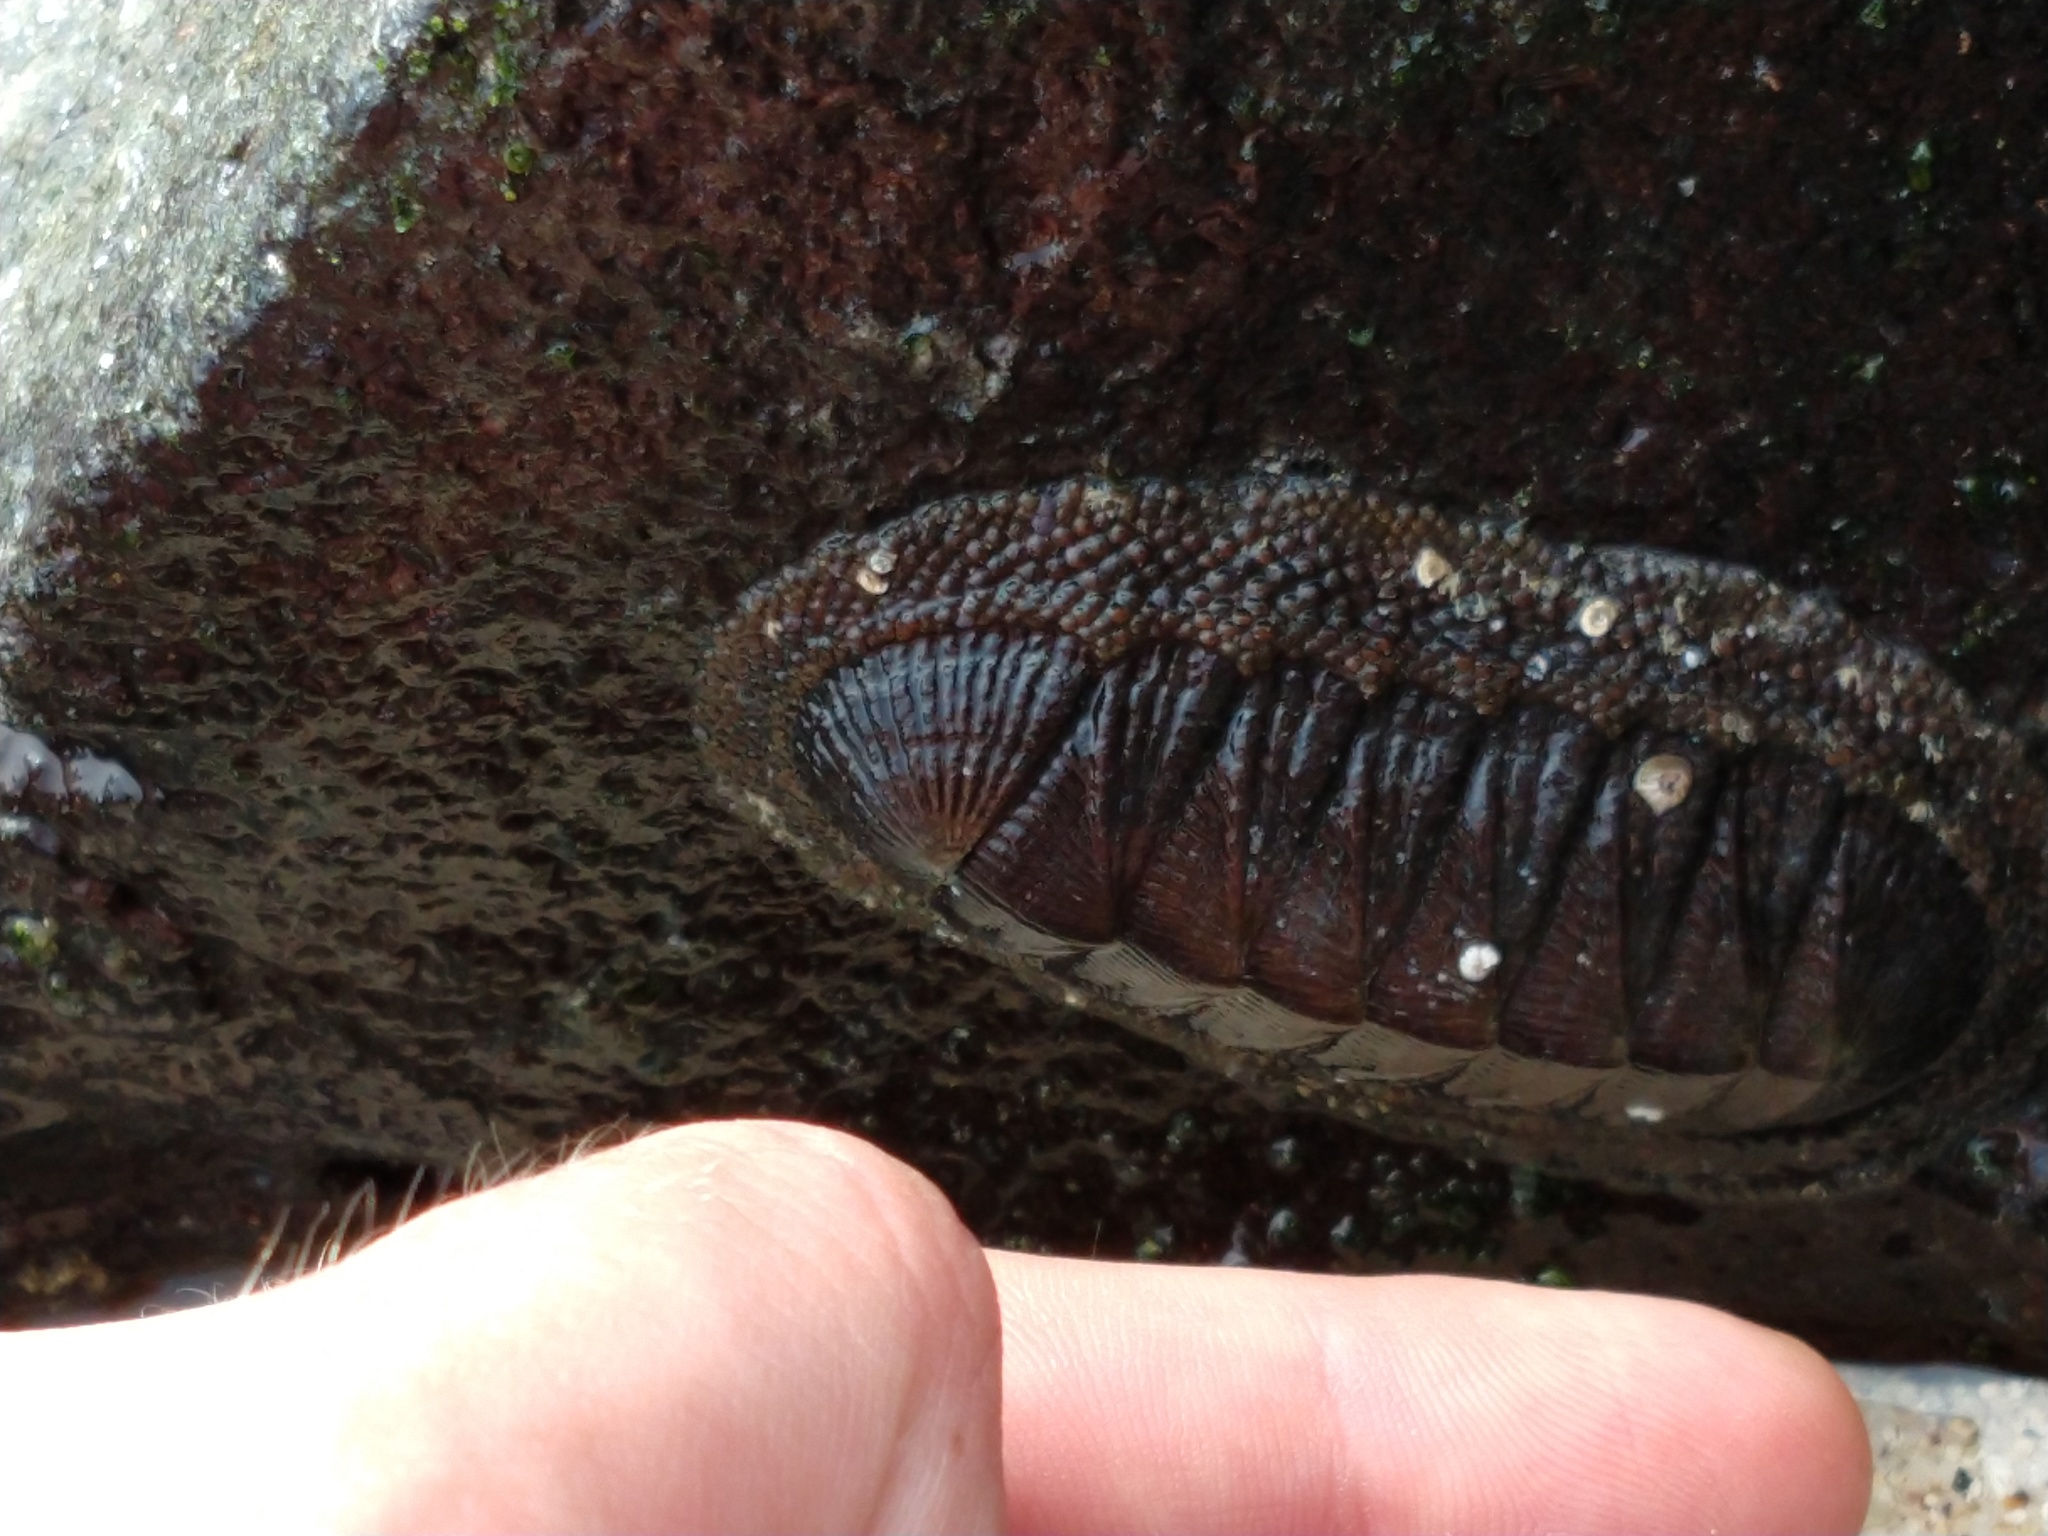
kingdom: Animalia
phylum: Mollusca
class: Polyplacophora
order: Chitonida
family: Chitonidae
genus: Radsia
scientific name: Radsia sulcatus
